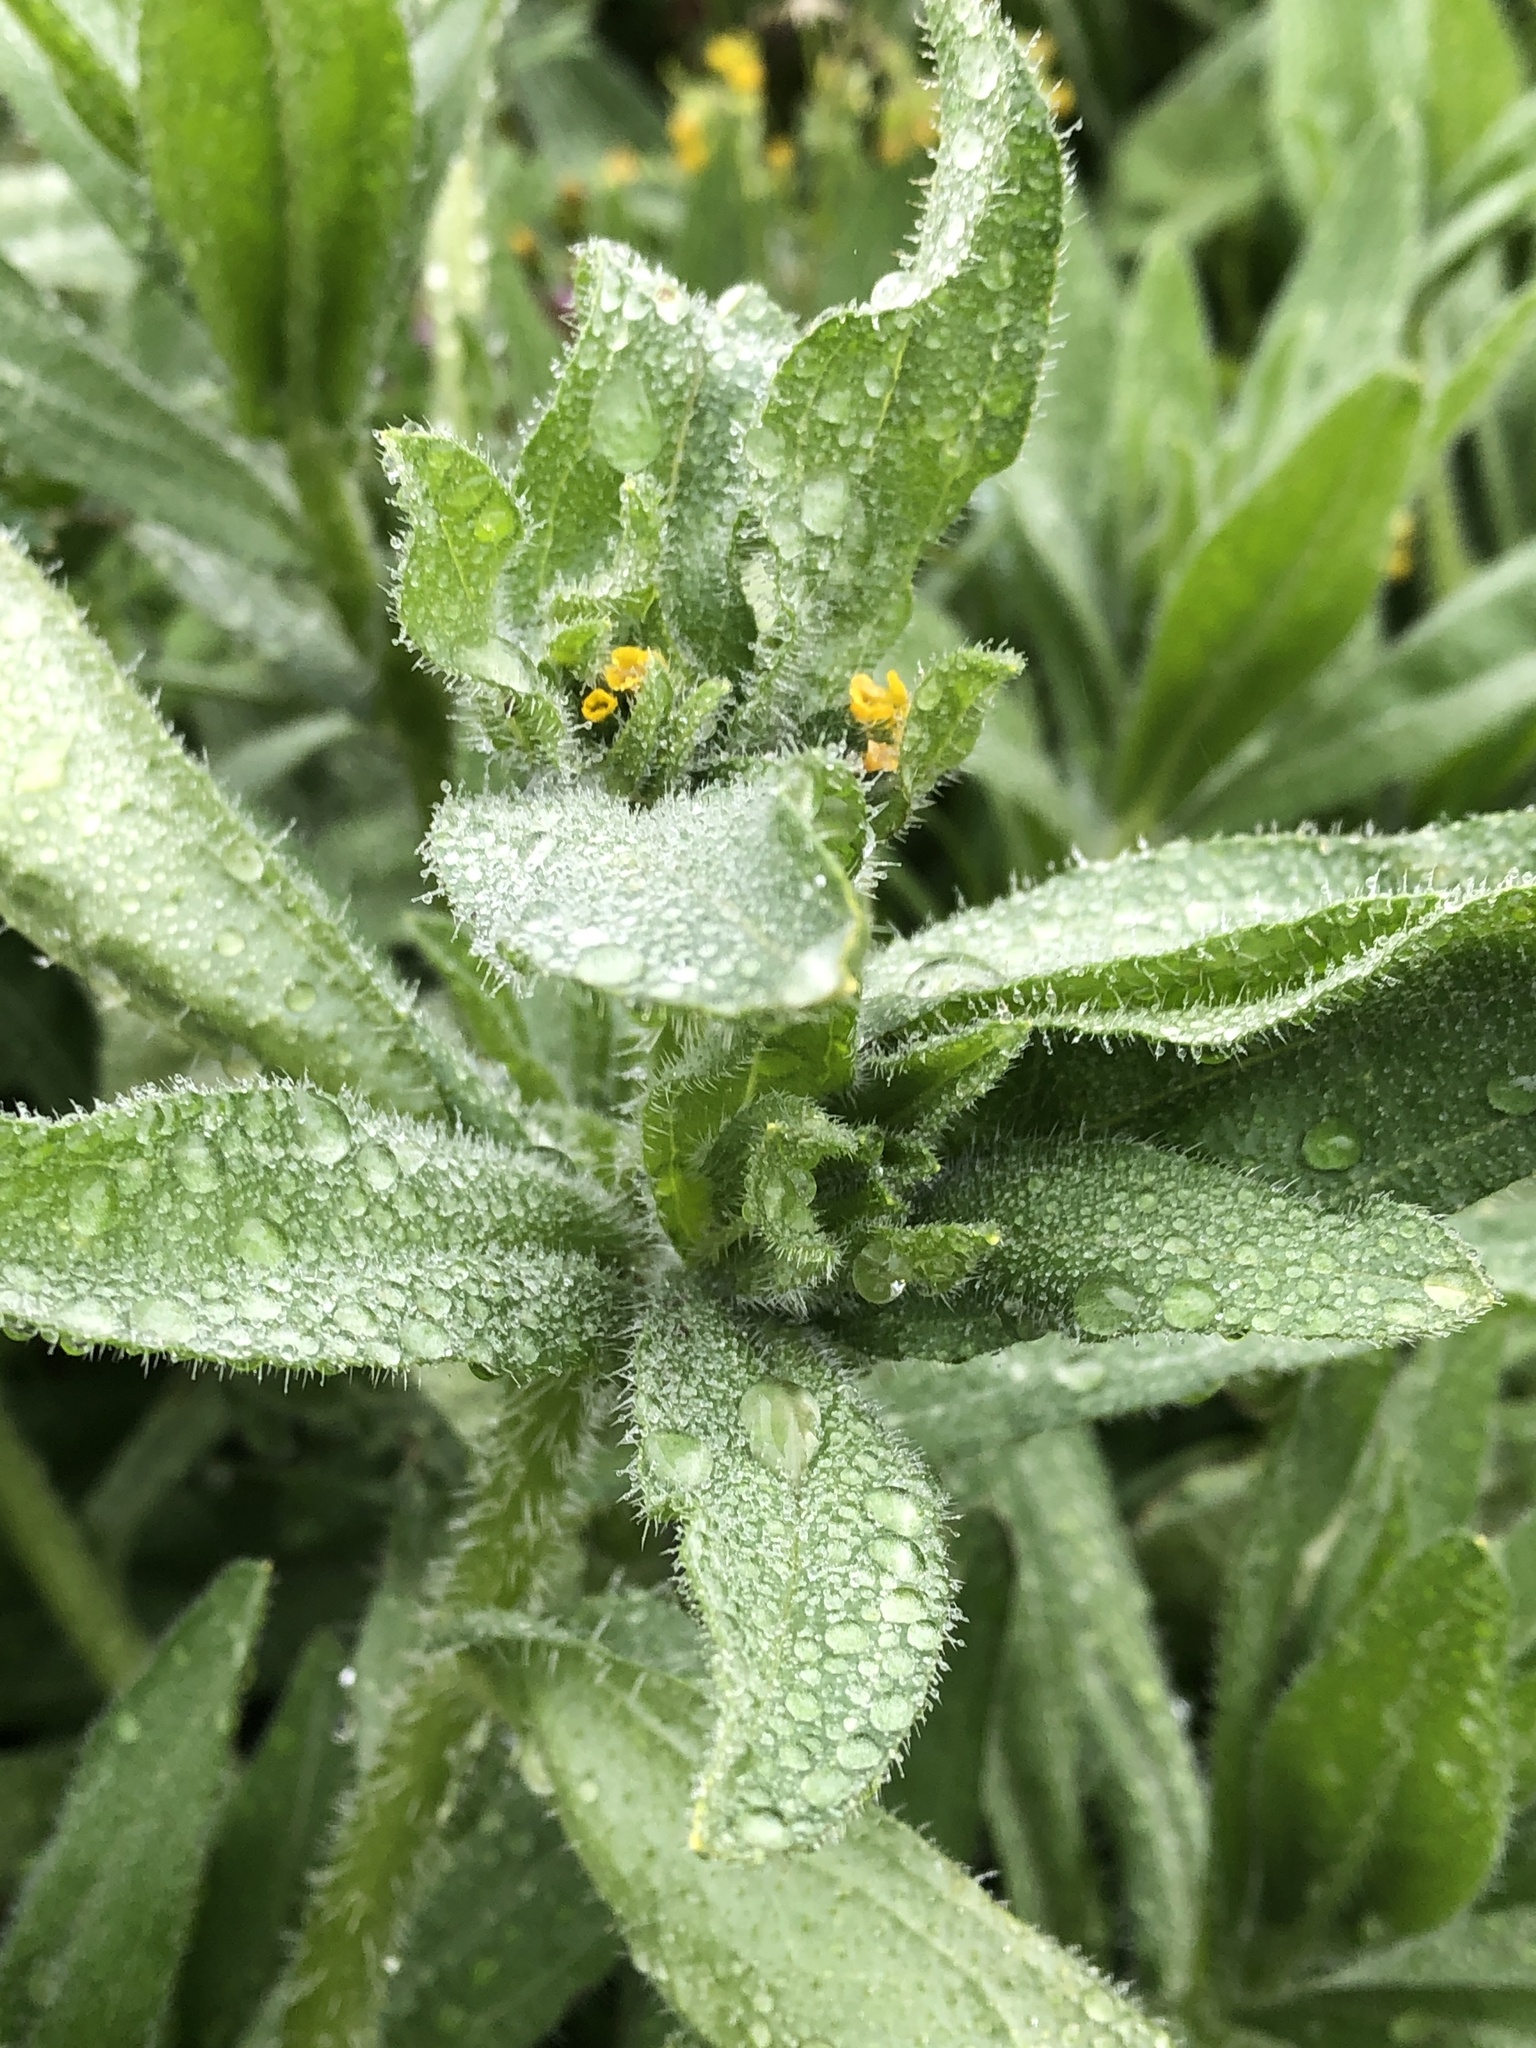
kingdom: Plantae
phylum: Tracheophyta
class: Magnoliopsida
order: Boraginales
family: Boraginaceae
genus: Amsinckia
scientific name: Amsinckia menziesii
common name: Menzies' fiddleneck
